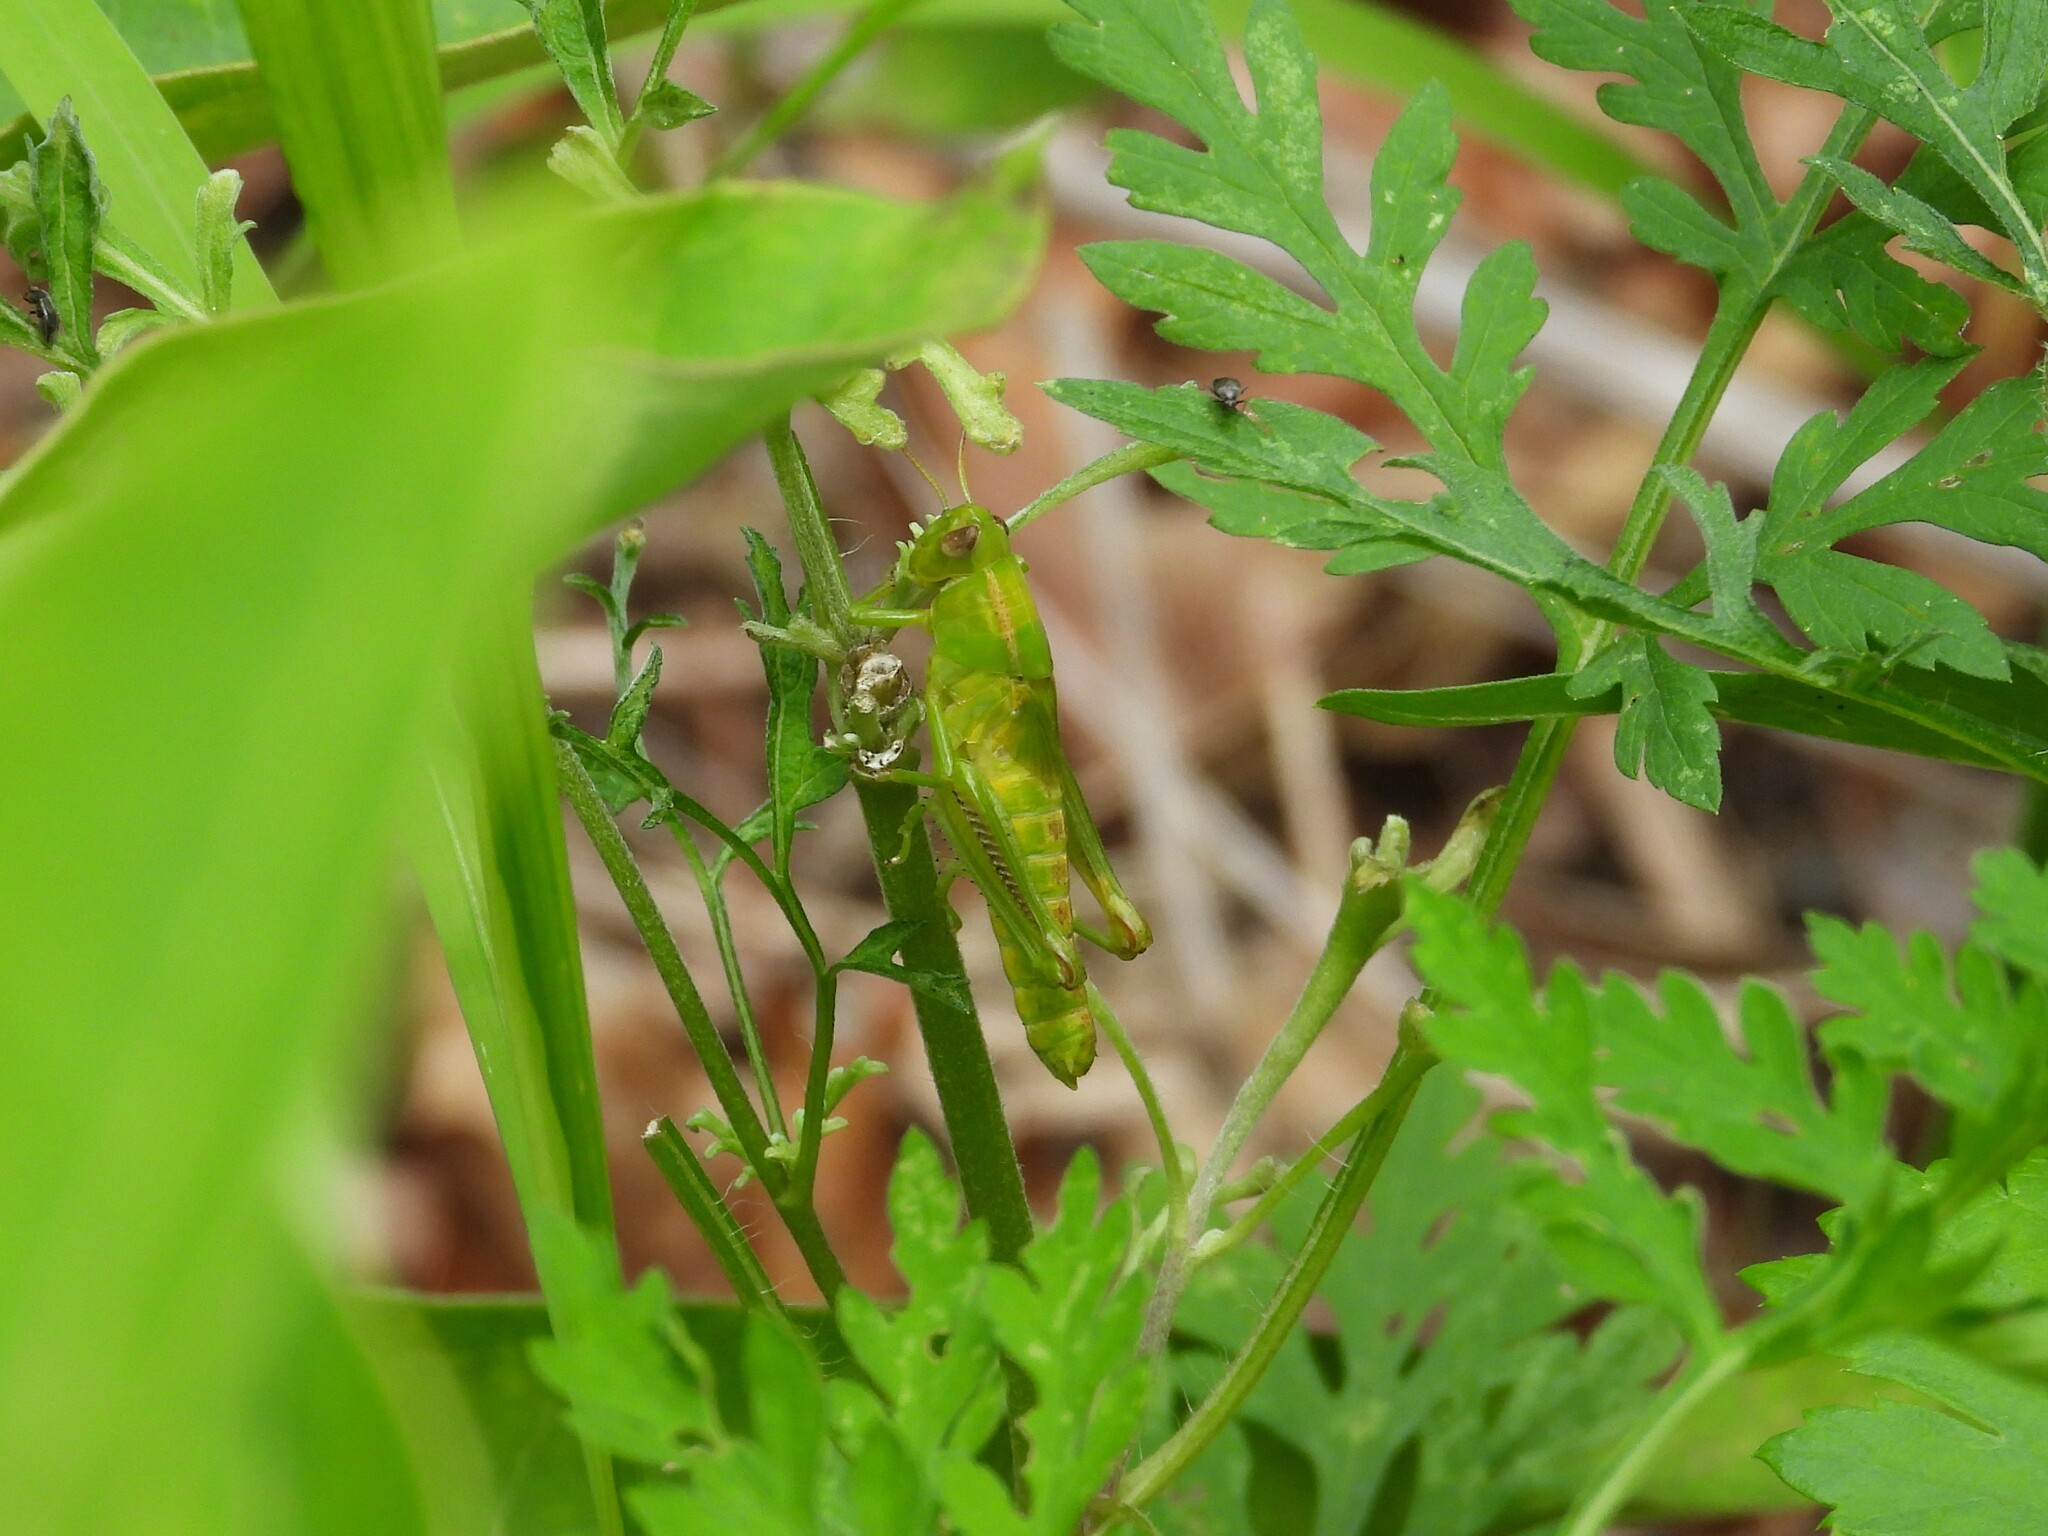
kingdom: Animalia
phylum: Arthropoda
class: Insecta
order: Orthoptera
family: Acrididae
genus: Melanoplus
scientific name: Melanoplus bivittatus
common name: Two-striped grasshopper
